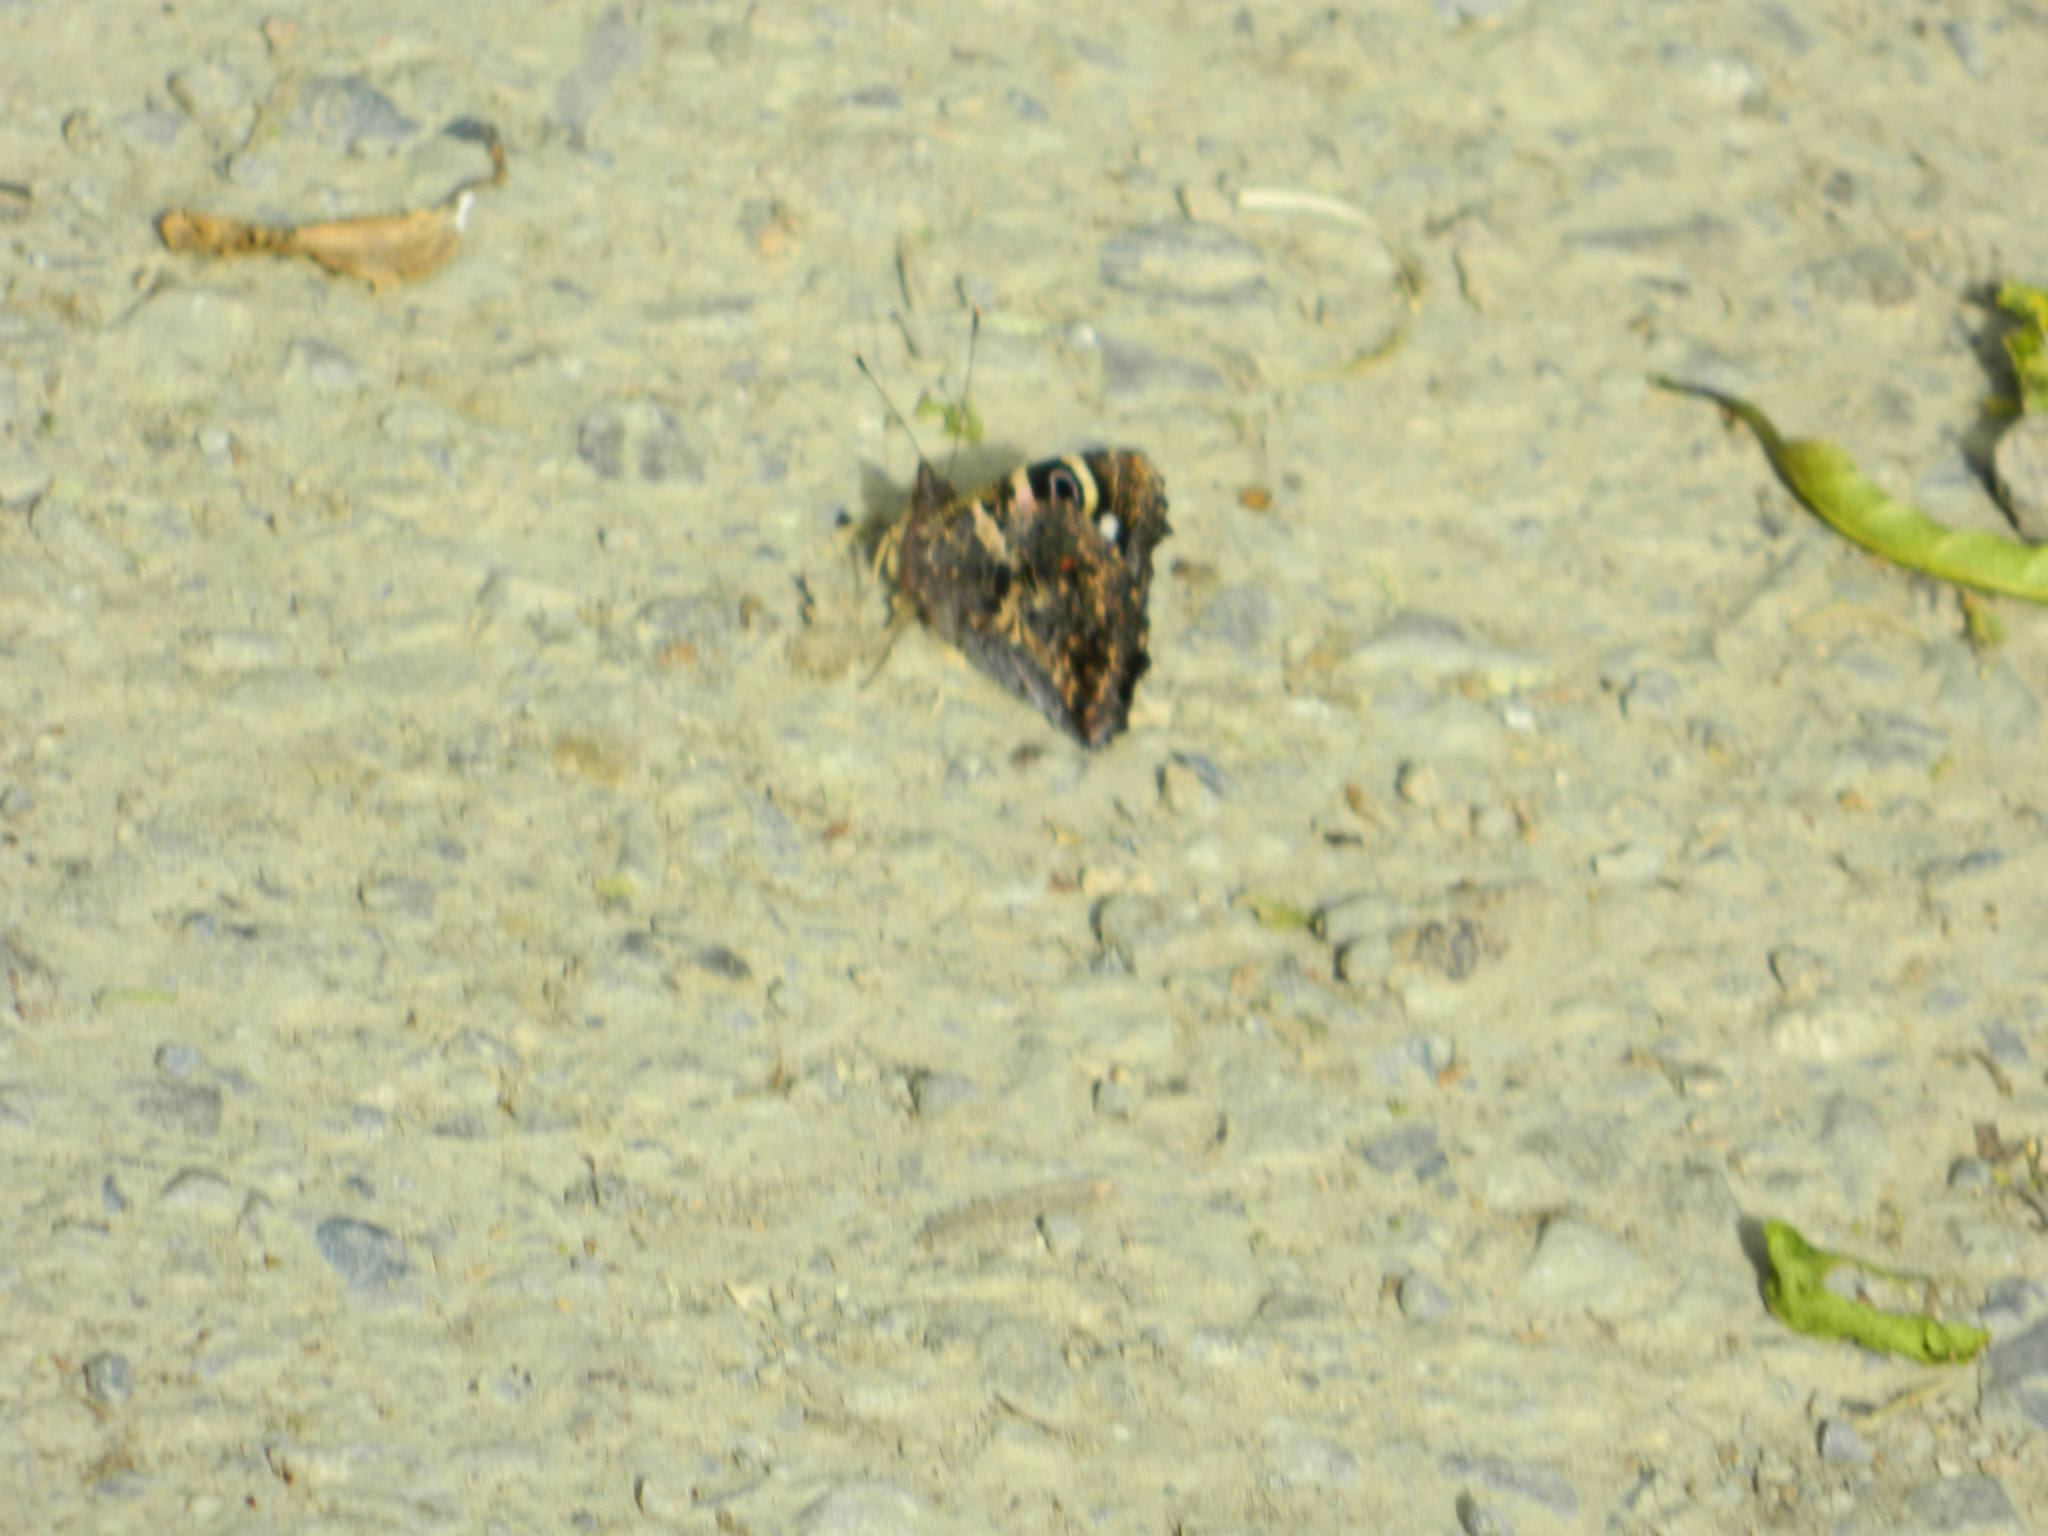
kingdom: Animalia
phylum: Arthropoda
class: Insecta
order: Lepidoptera
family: Nymphalidae
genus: Vanessa
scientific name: Vanessa gonerilla
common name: New zealand red admiral
